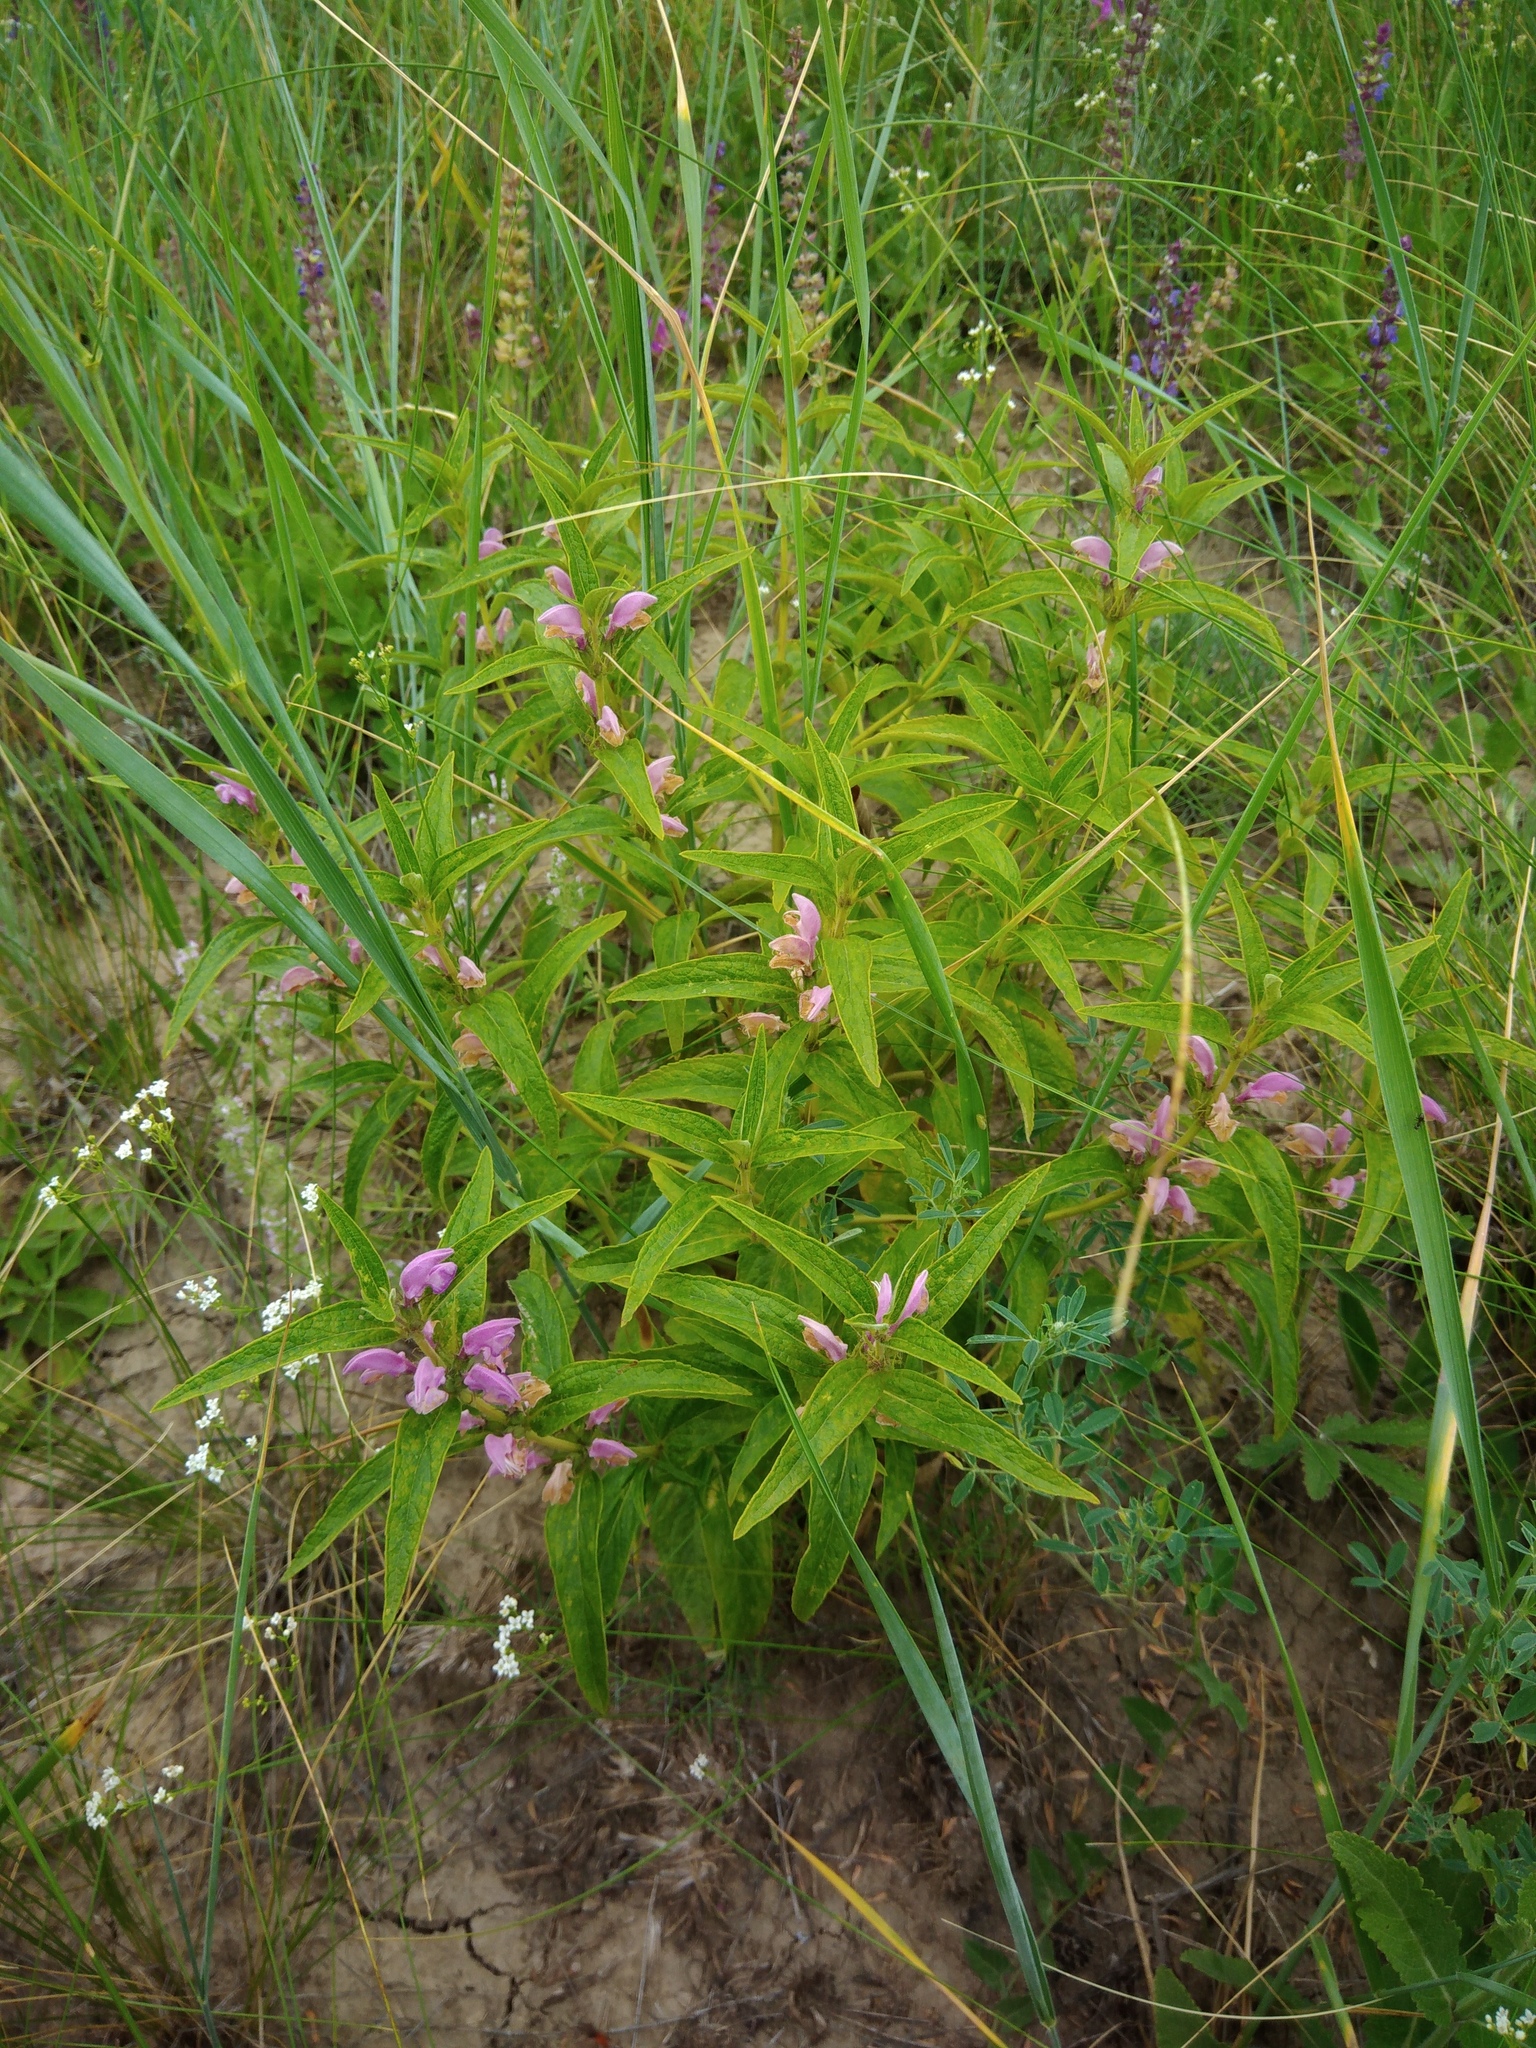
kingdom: Plantae
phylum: Tracheophyta
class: Magnoliopsida
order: Lamiales
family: Lamiaceae
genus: Phlomis
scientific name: Phlomis herba-venti
